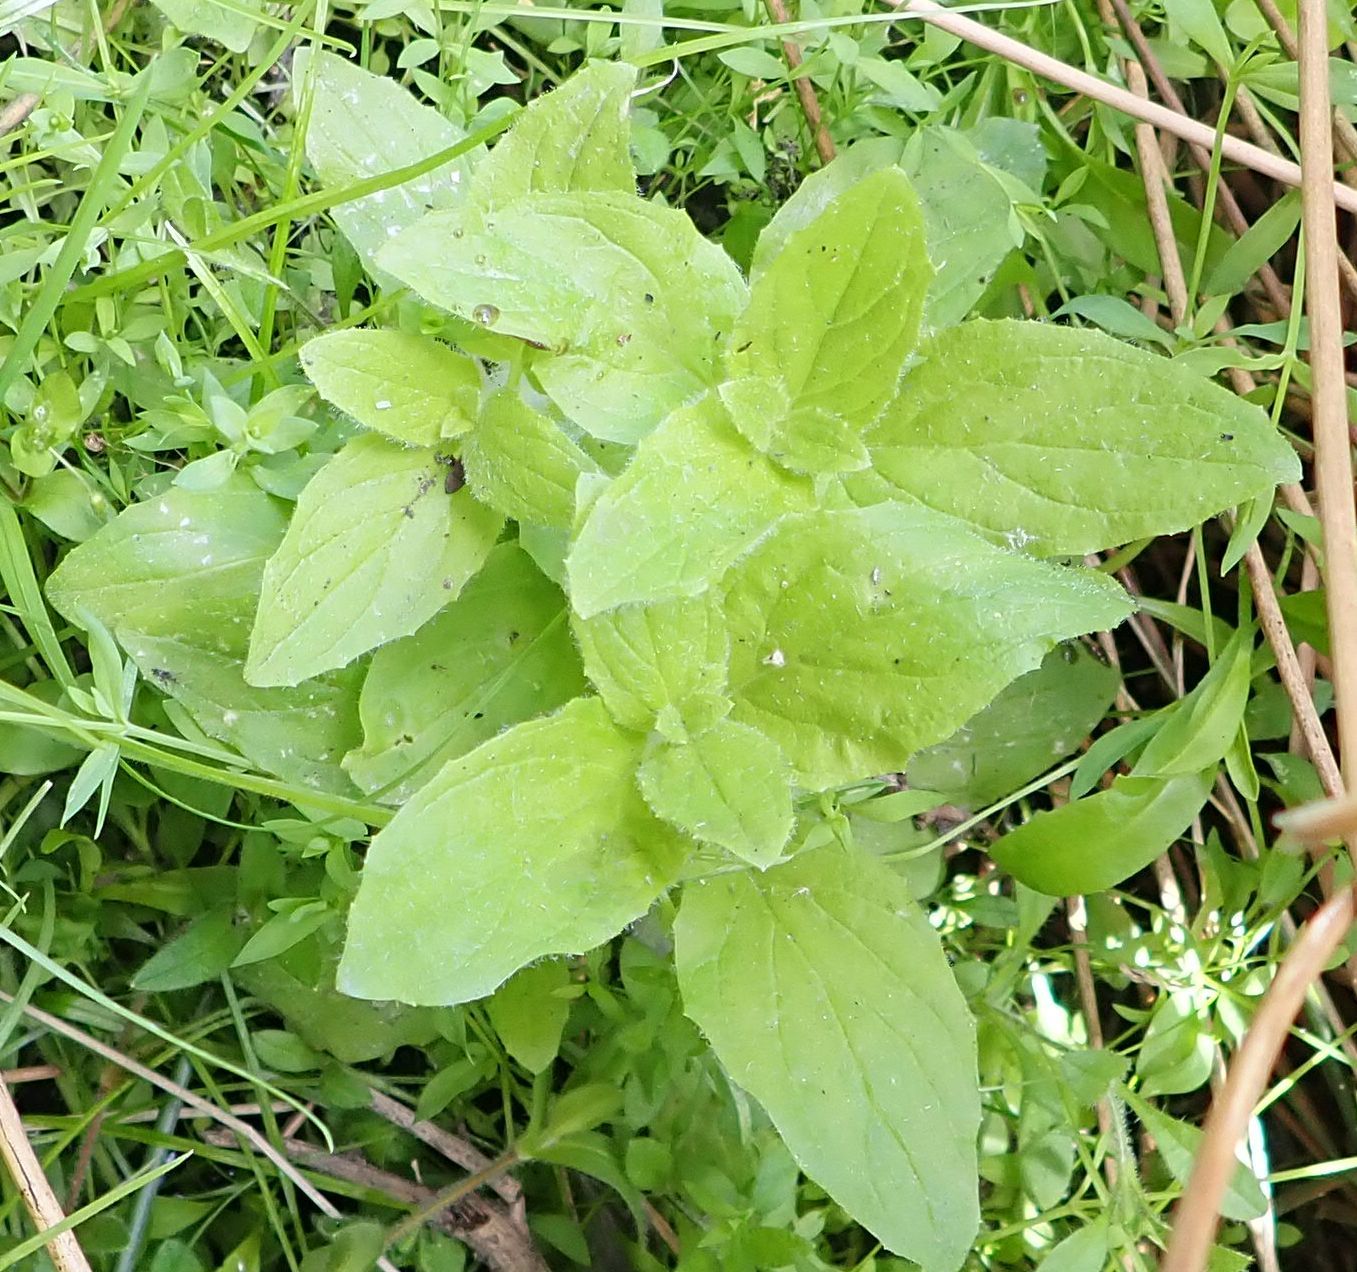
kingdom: Plantae
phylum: Tracheophyta
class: Magnoliopsida
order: Lamiales
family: Phrymaceae
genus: Erythranthe
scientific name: Erythranthe moschata
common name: Muskflower
